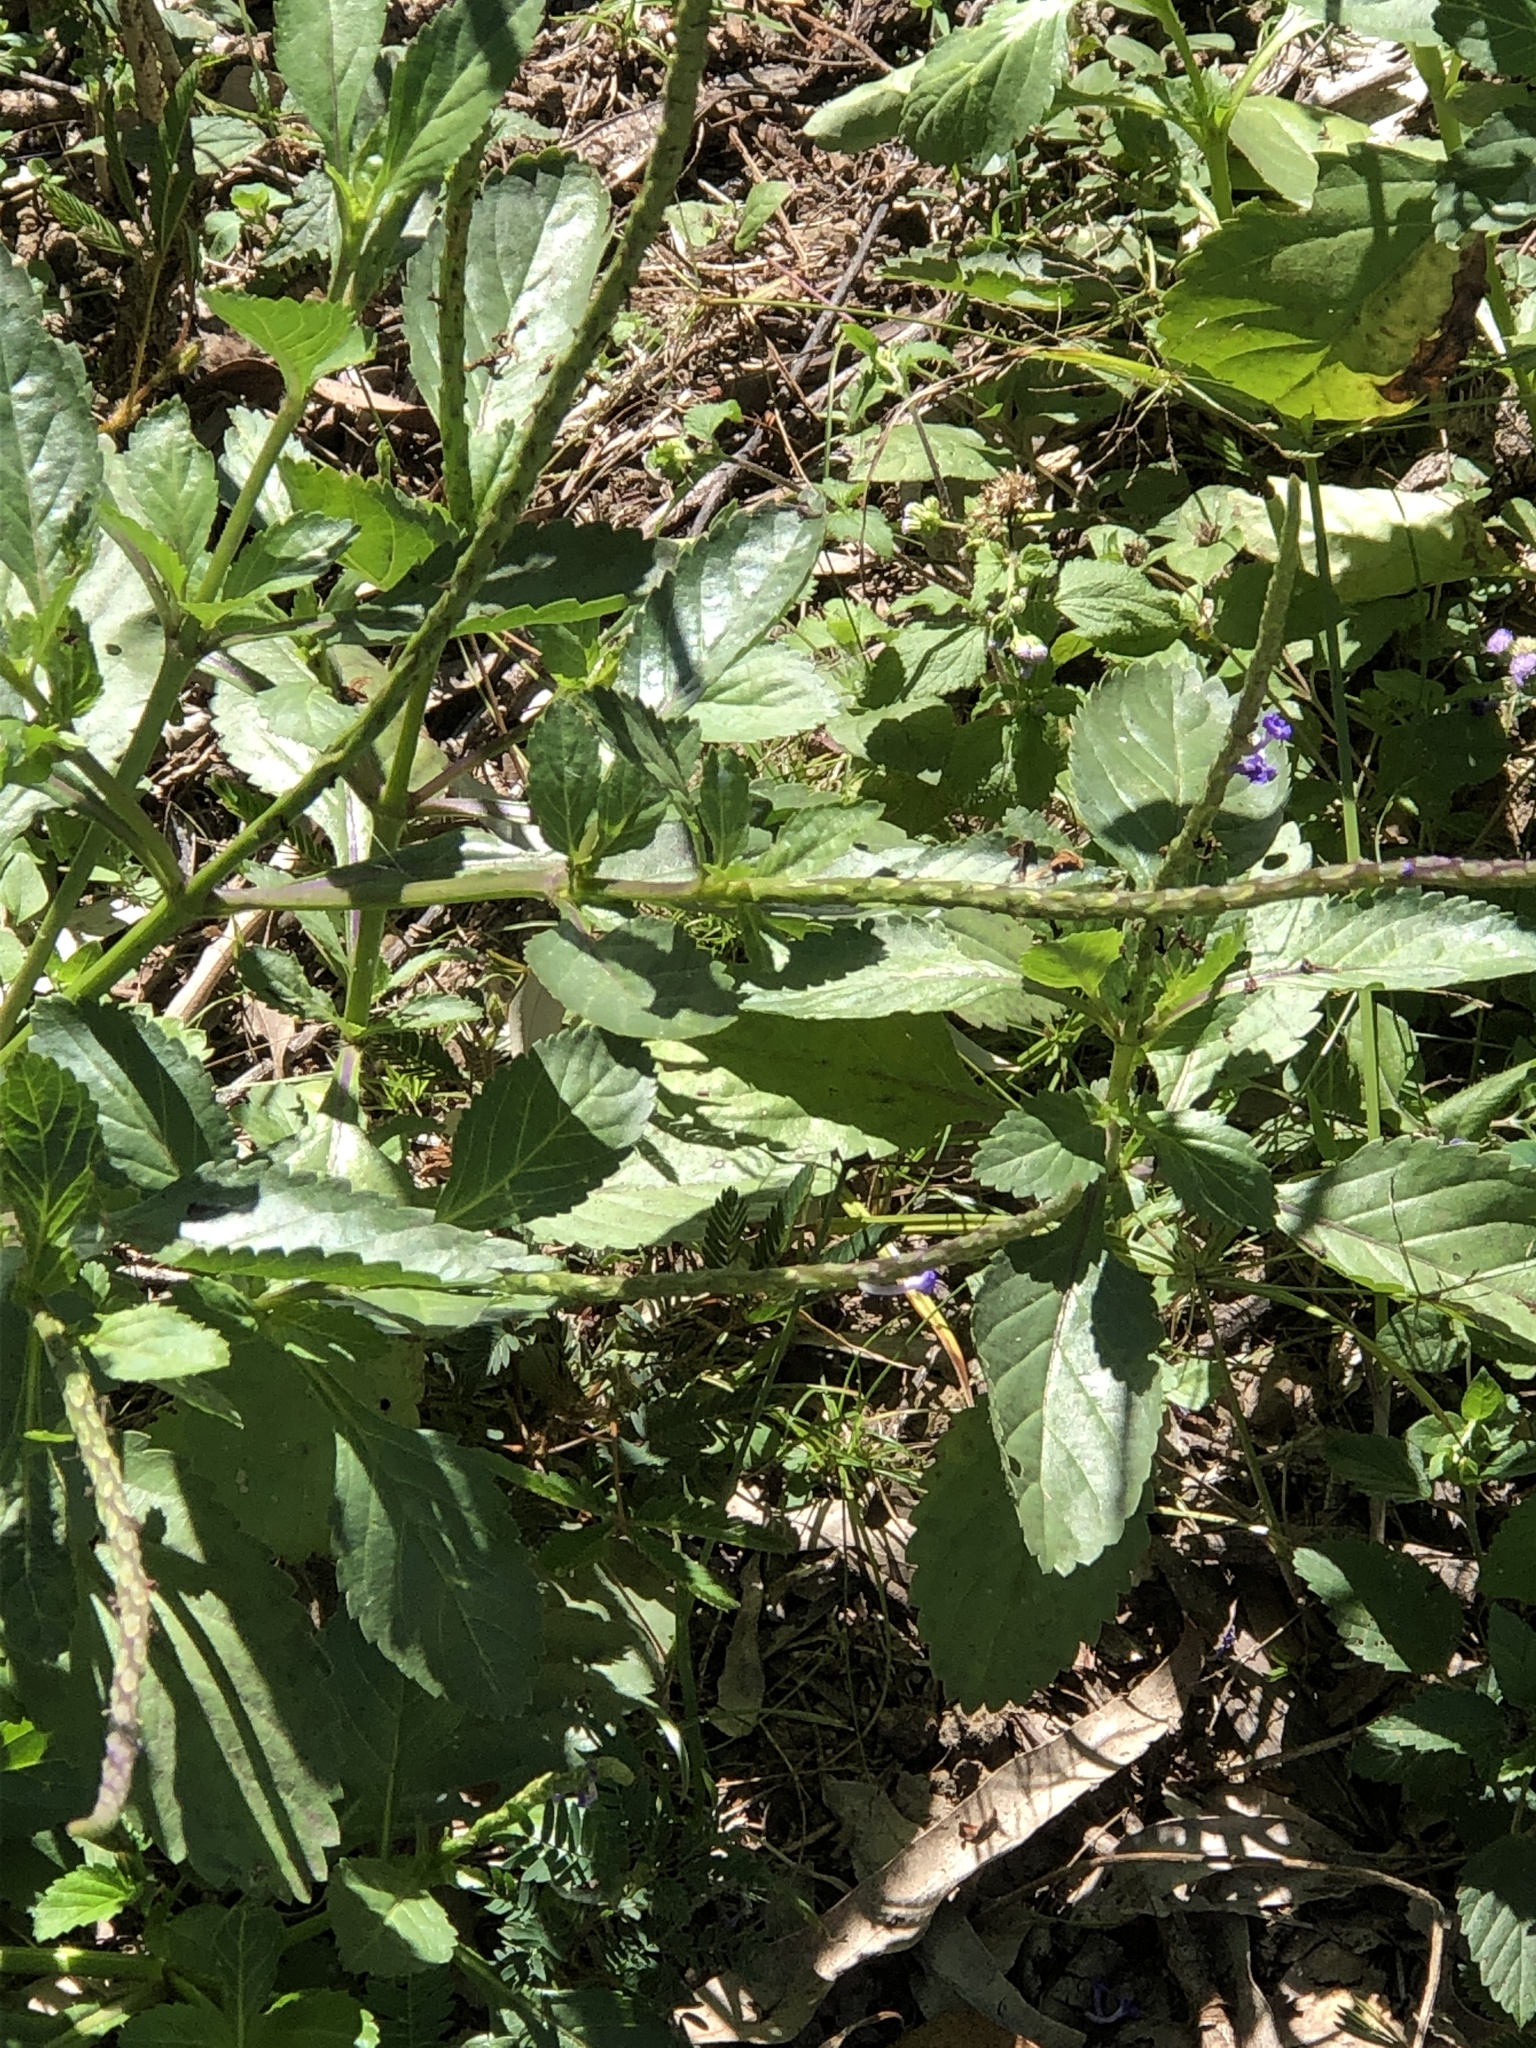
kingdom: Plantae
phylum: Tracheophyta
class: Magnoliopsida
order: Lamiales
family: Verbenaceae
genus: Stachytarpheta
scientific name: Stachytarpheta jamaicensis
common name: Light-blue snakeweed
